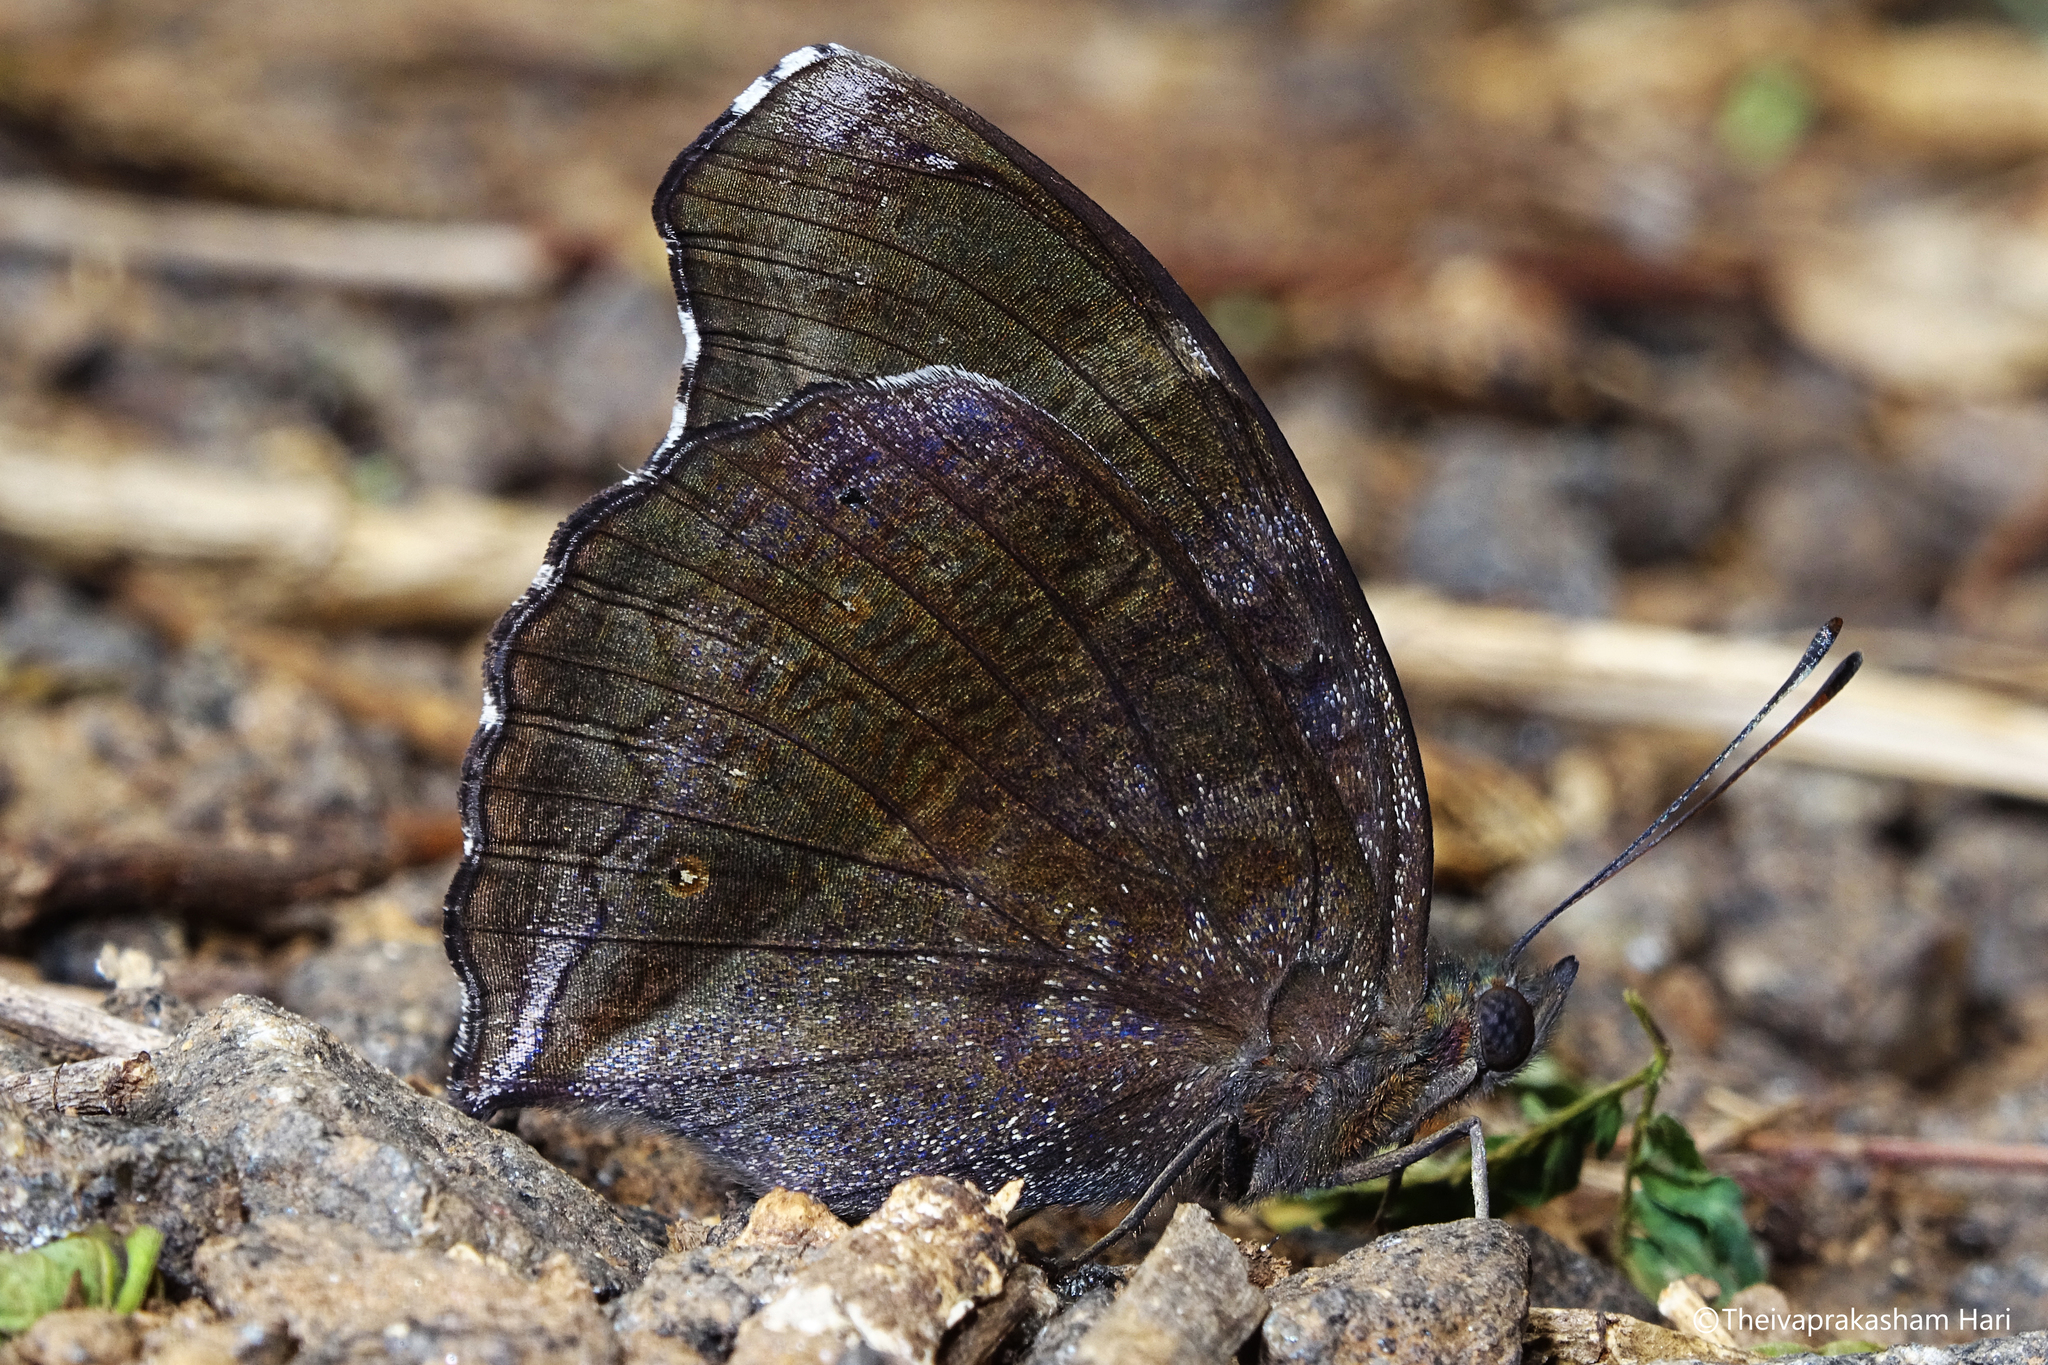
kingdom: Animalia
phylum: Arthropoda
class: Insecta
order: Lepidoptera
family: Nymphalidae
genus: Junonia
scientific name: Junonia iphita
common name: Chocolate pansy
